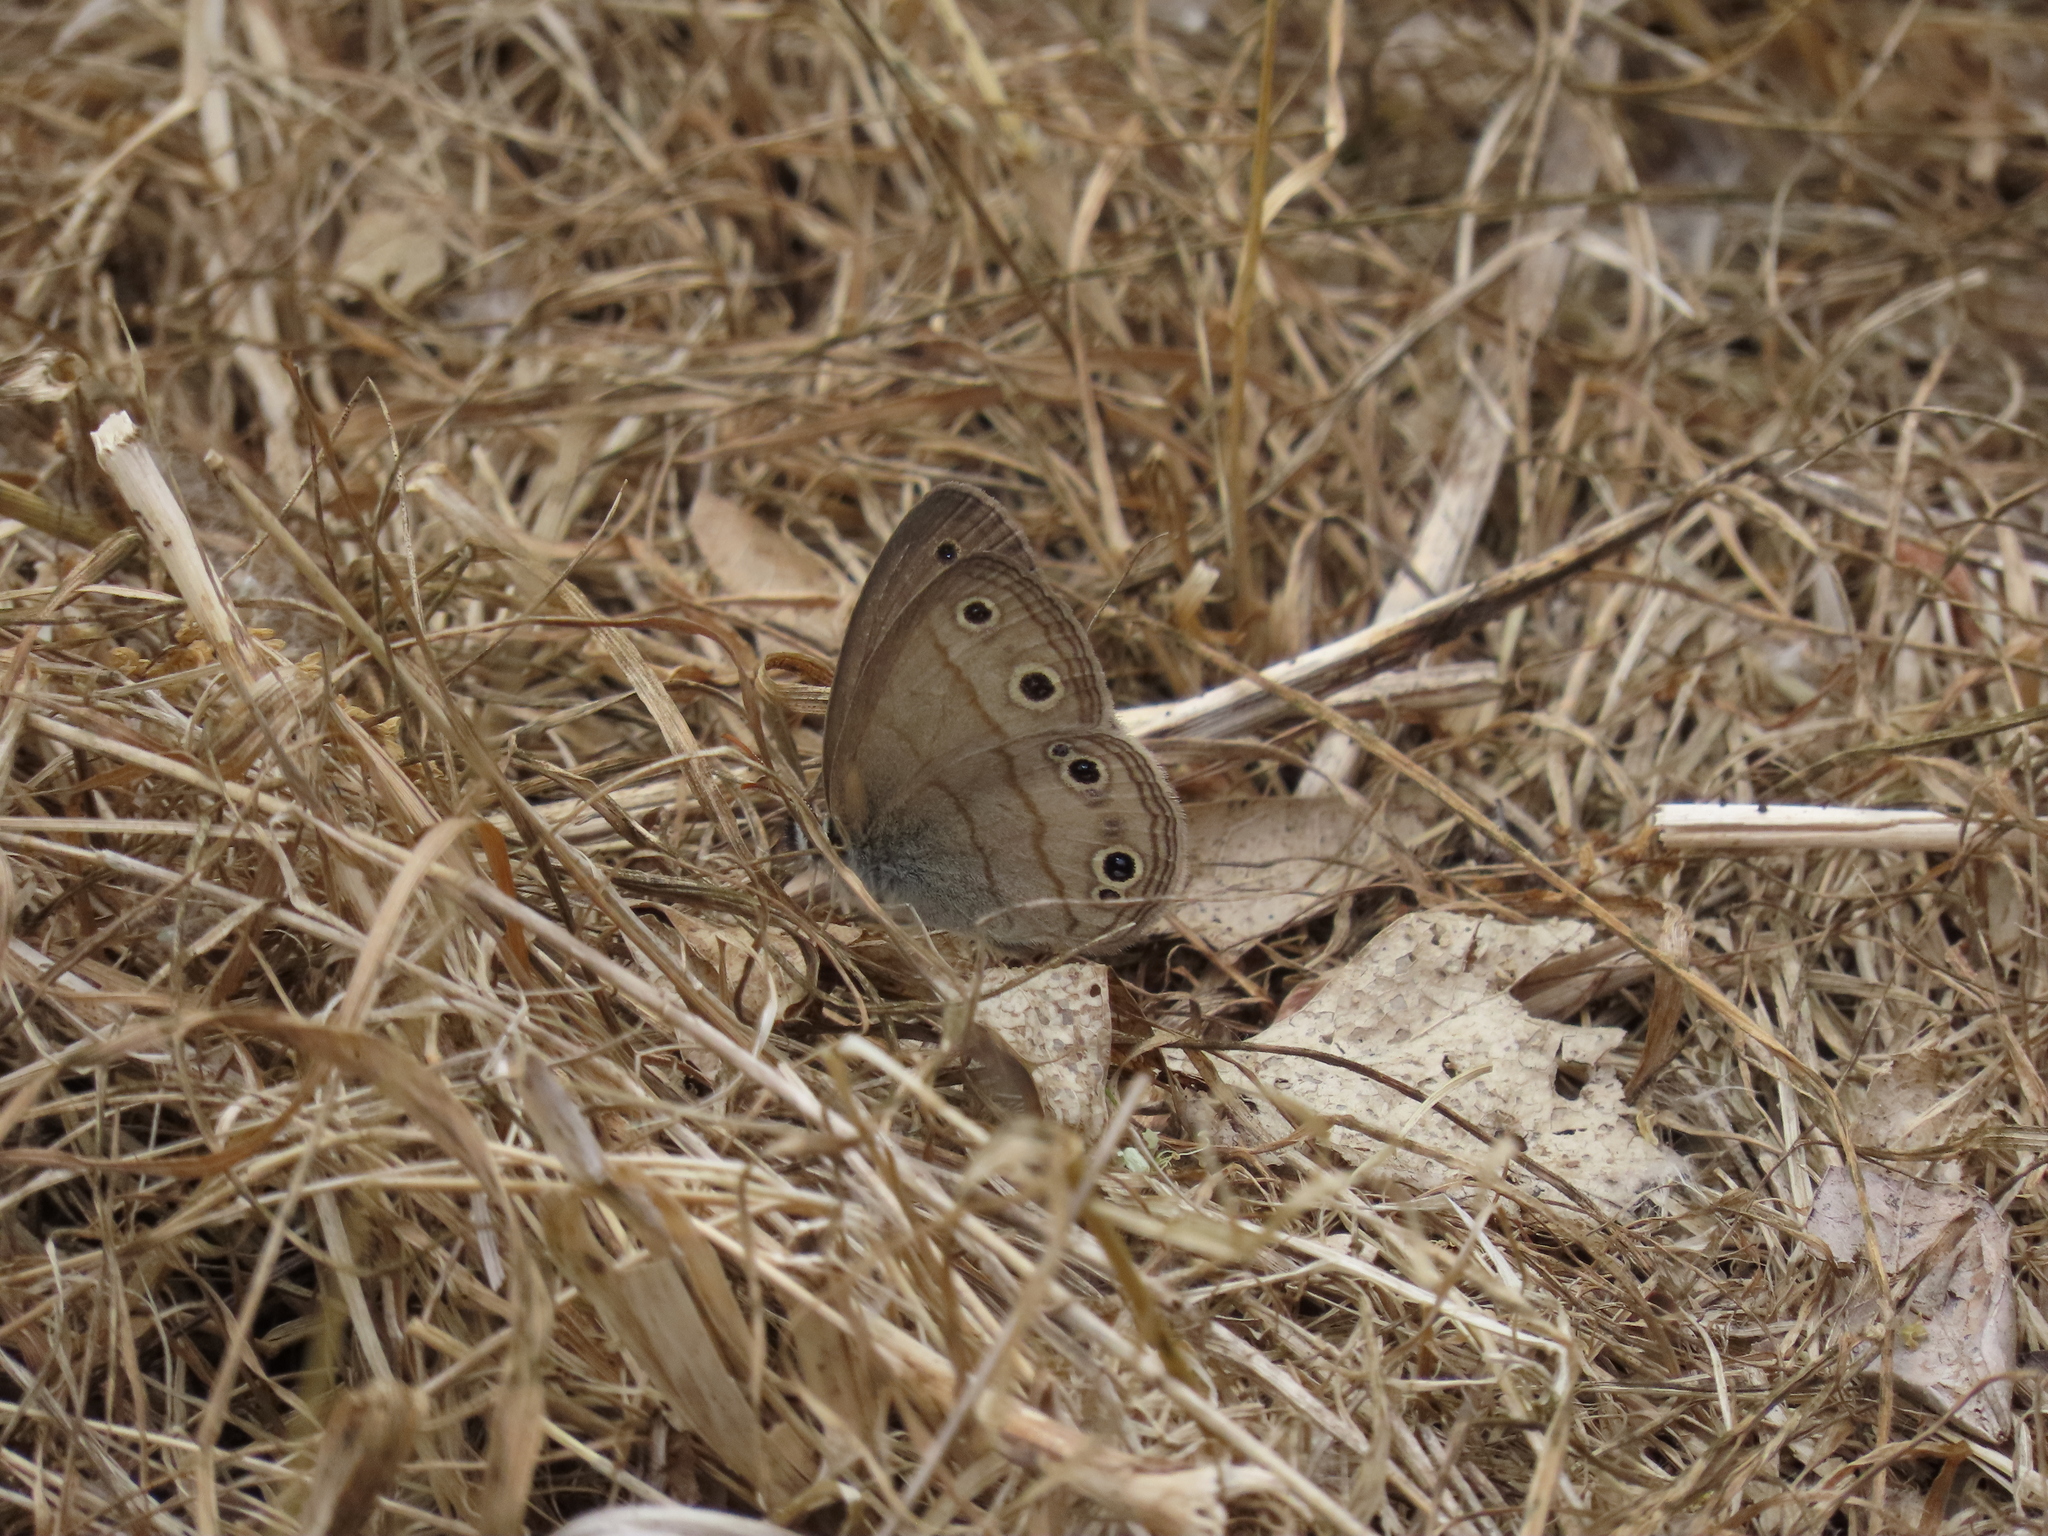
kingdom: Animalia
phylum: Arthropoda
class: Insecta
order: Lepidoptera
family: Nymphalidae
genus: Euptychia
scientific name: Euptychia cymela
